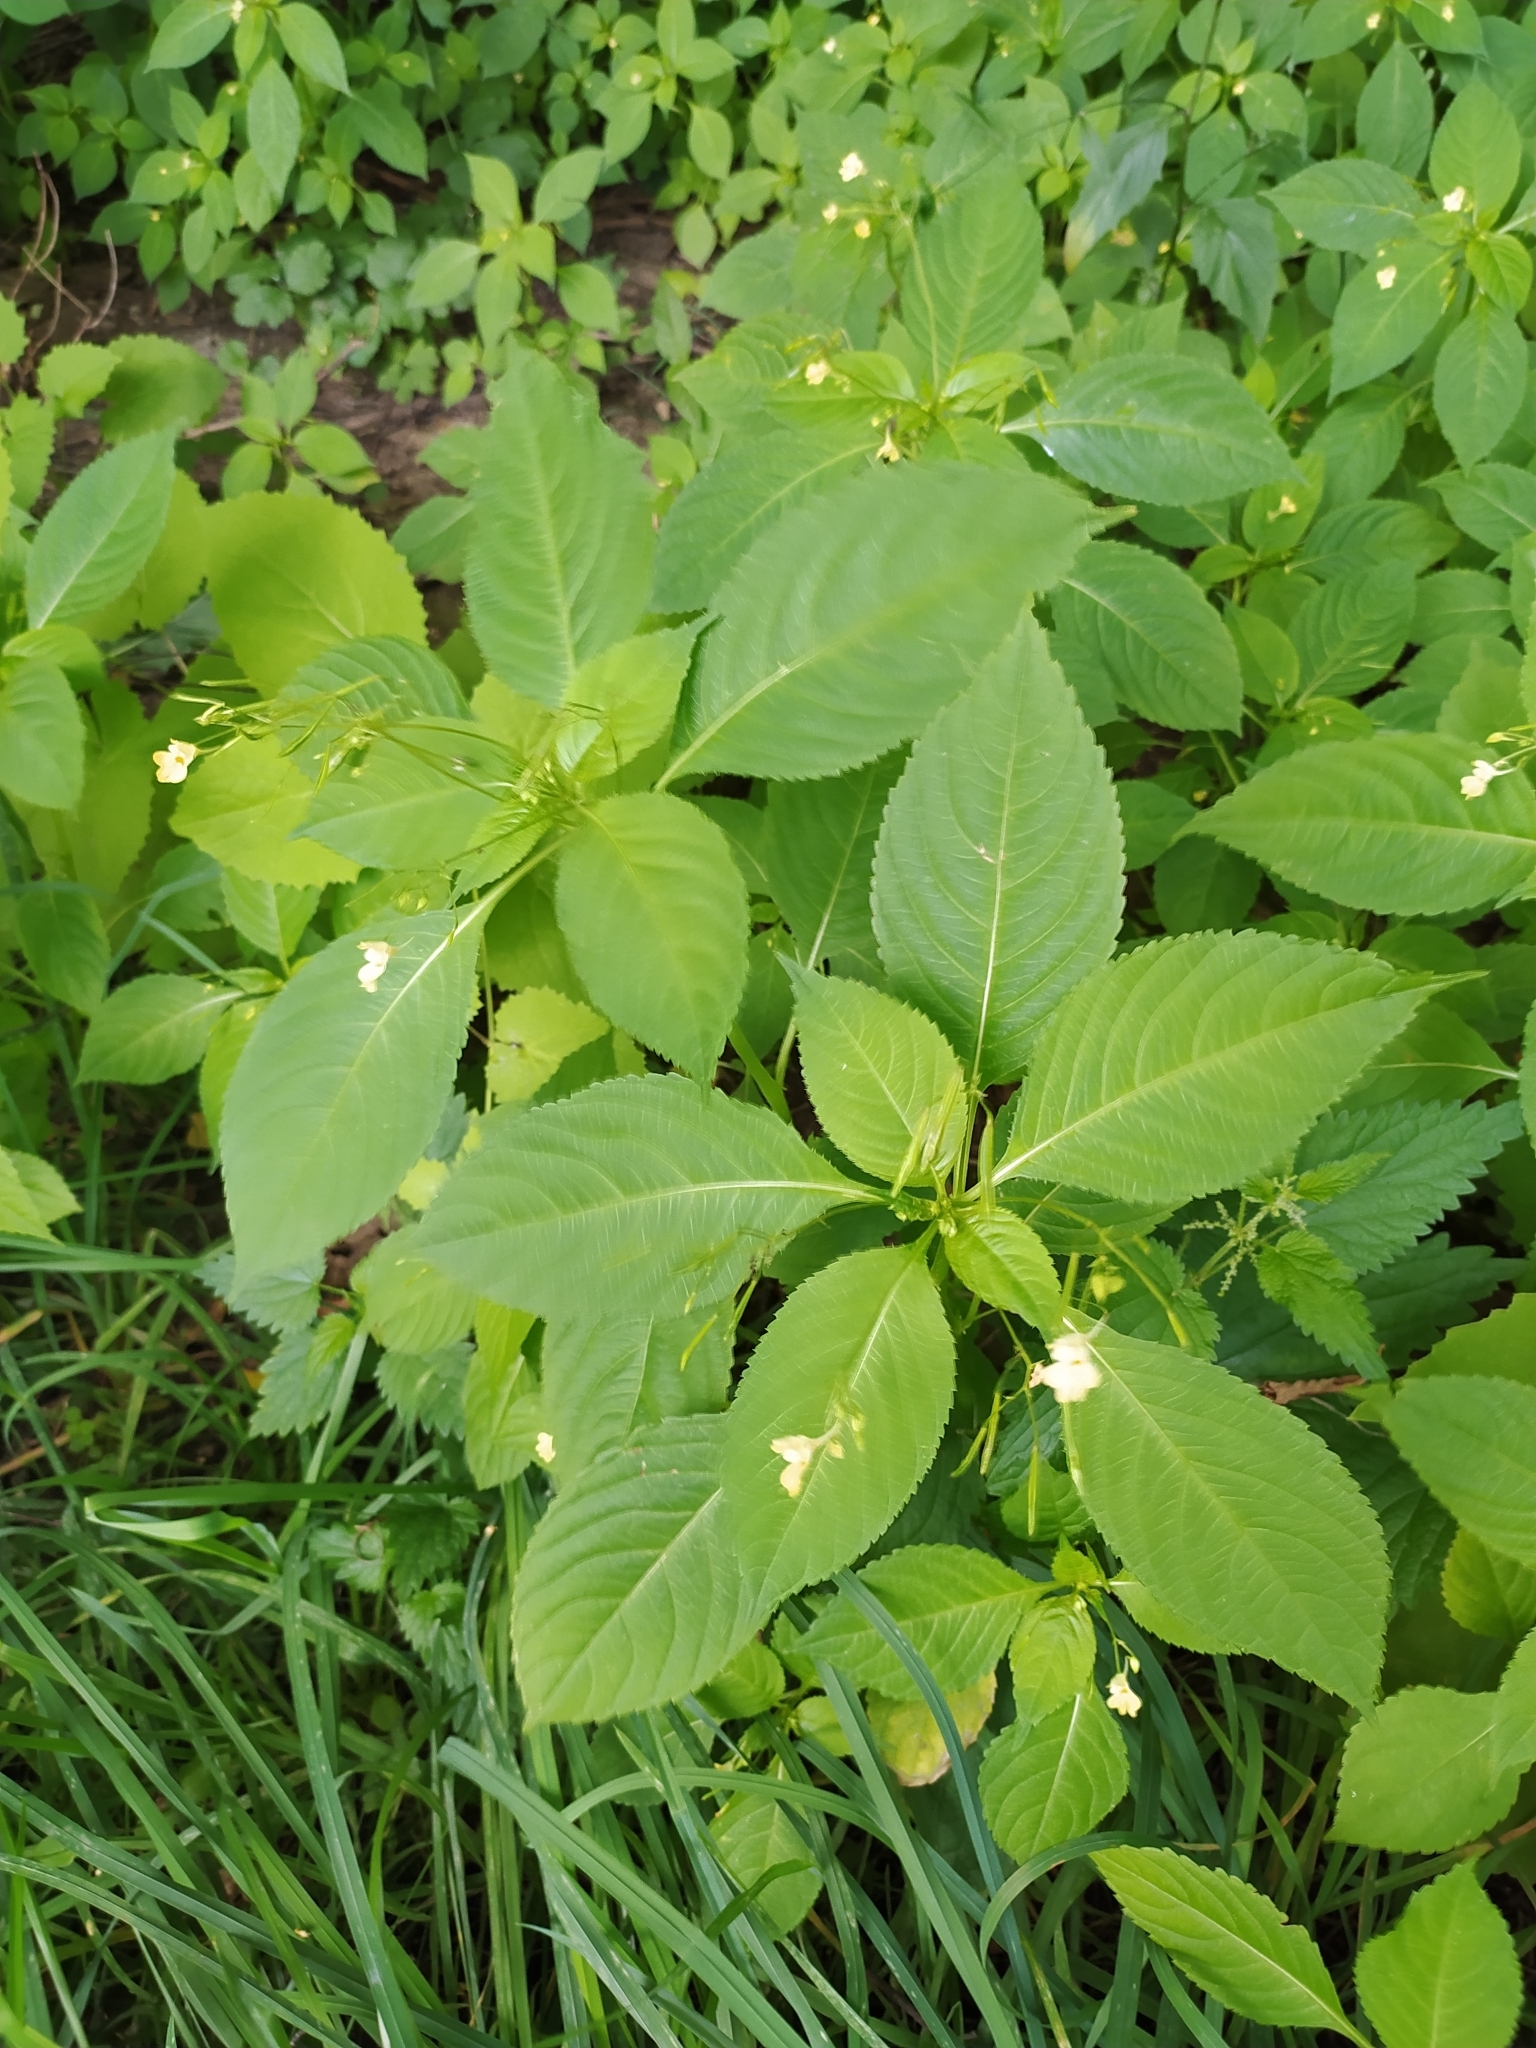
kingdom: Plantae
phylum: Tracheophyta
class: Magnoliopsida
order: Ericales
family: Balsaminaceae
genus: Impatiens
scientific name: Impatiens parviflora
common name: Small balsam
